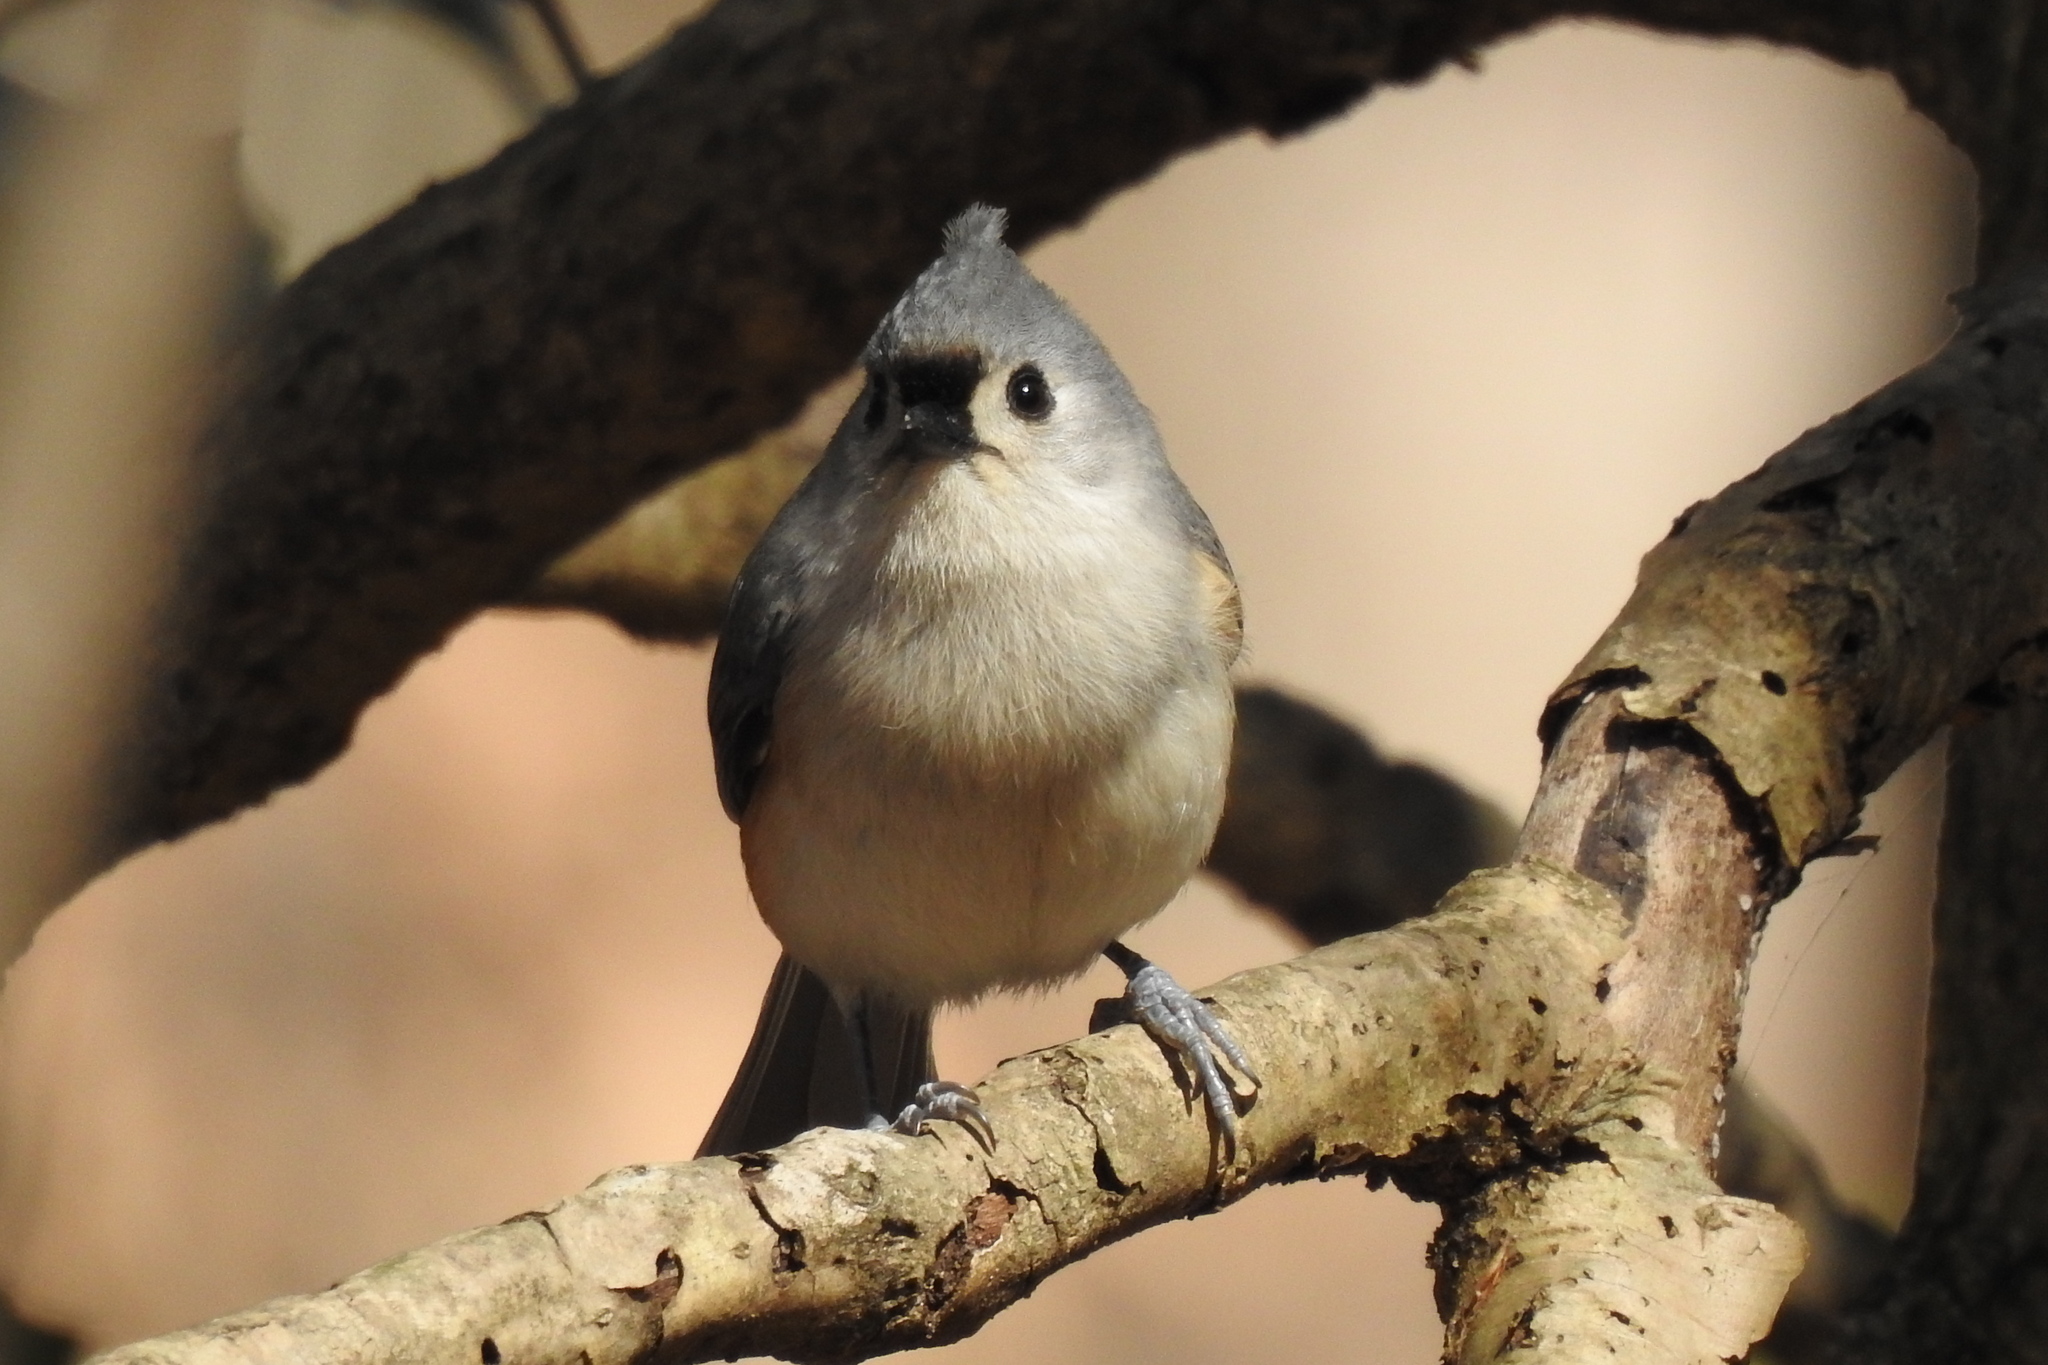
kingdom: Animalia
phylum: Chordata
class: Aves
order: Passeriformes
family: Paridae
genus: Baeolophus
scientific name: Baeolophus bicolor
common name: Tufted titmouse
